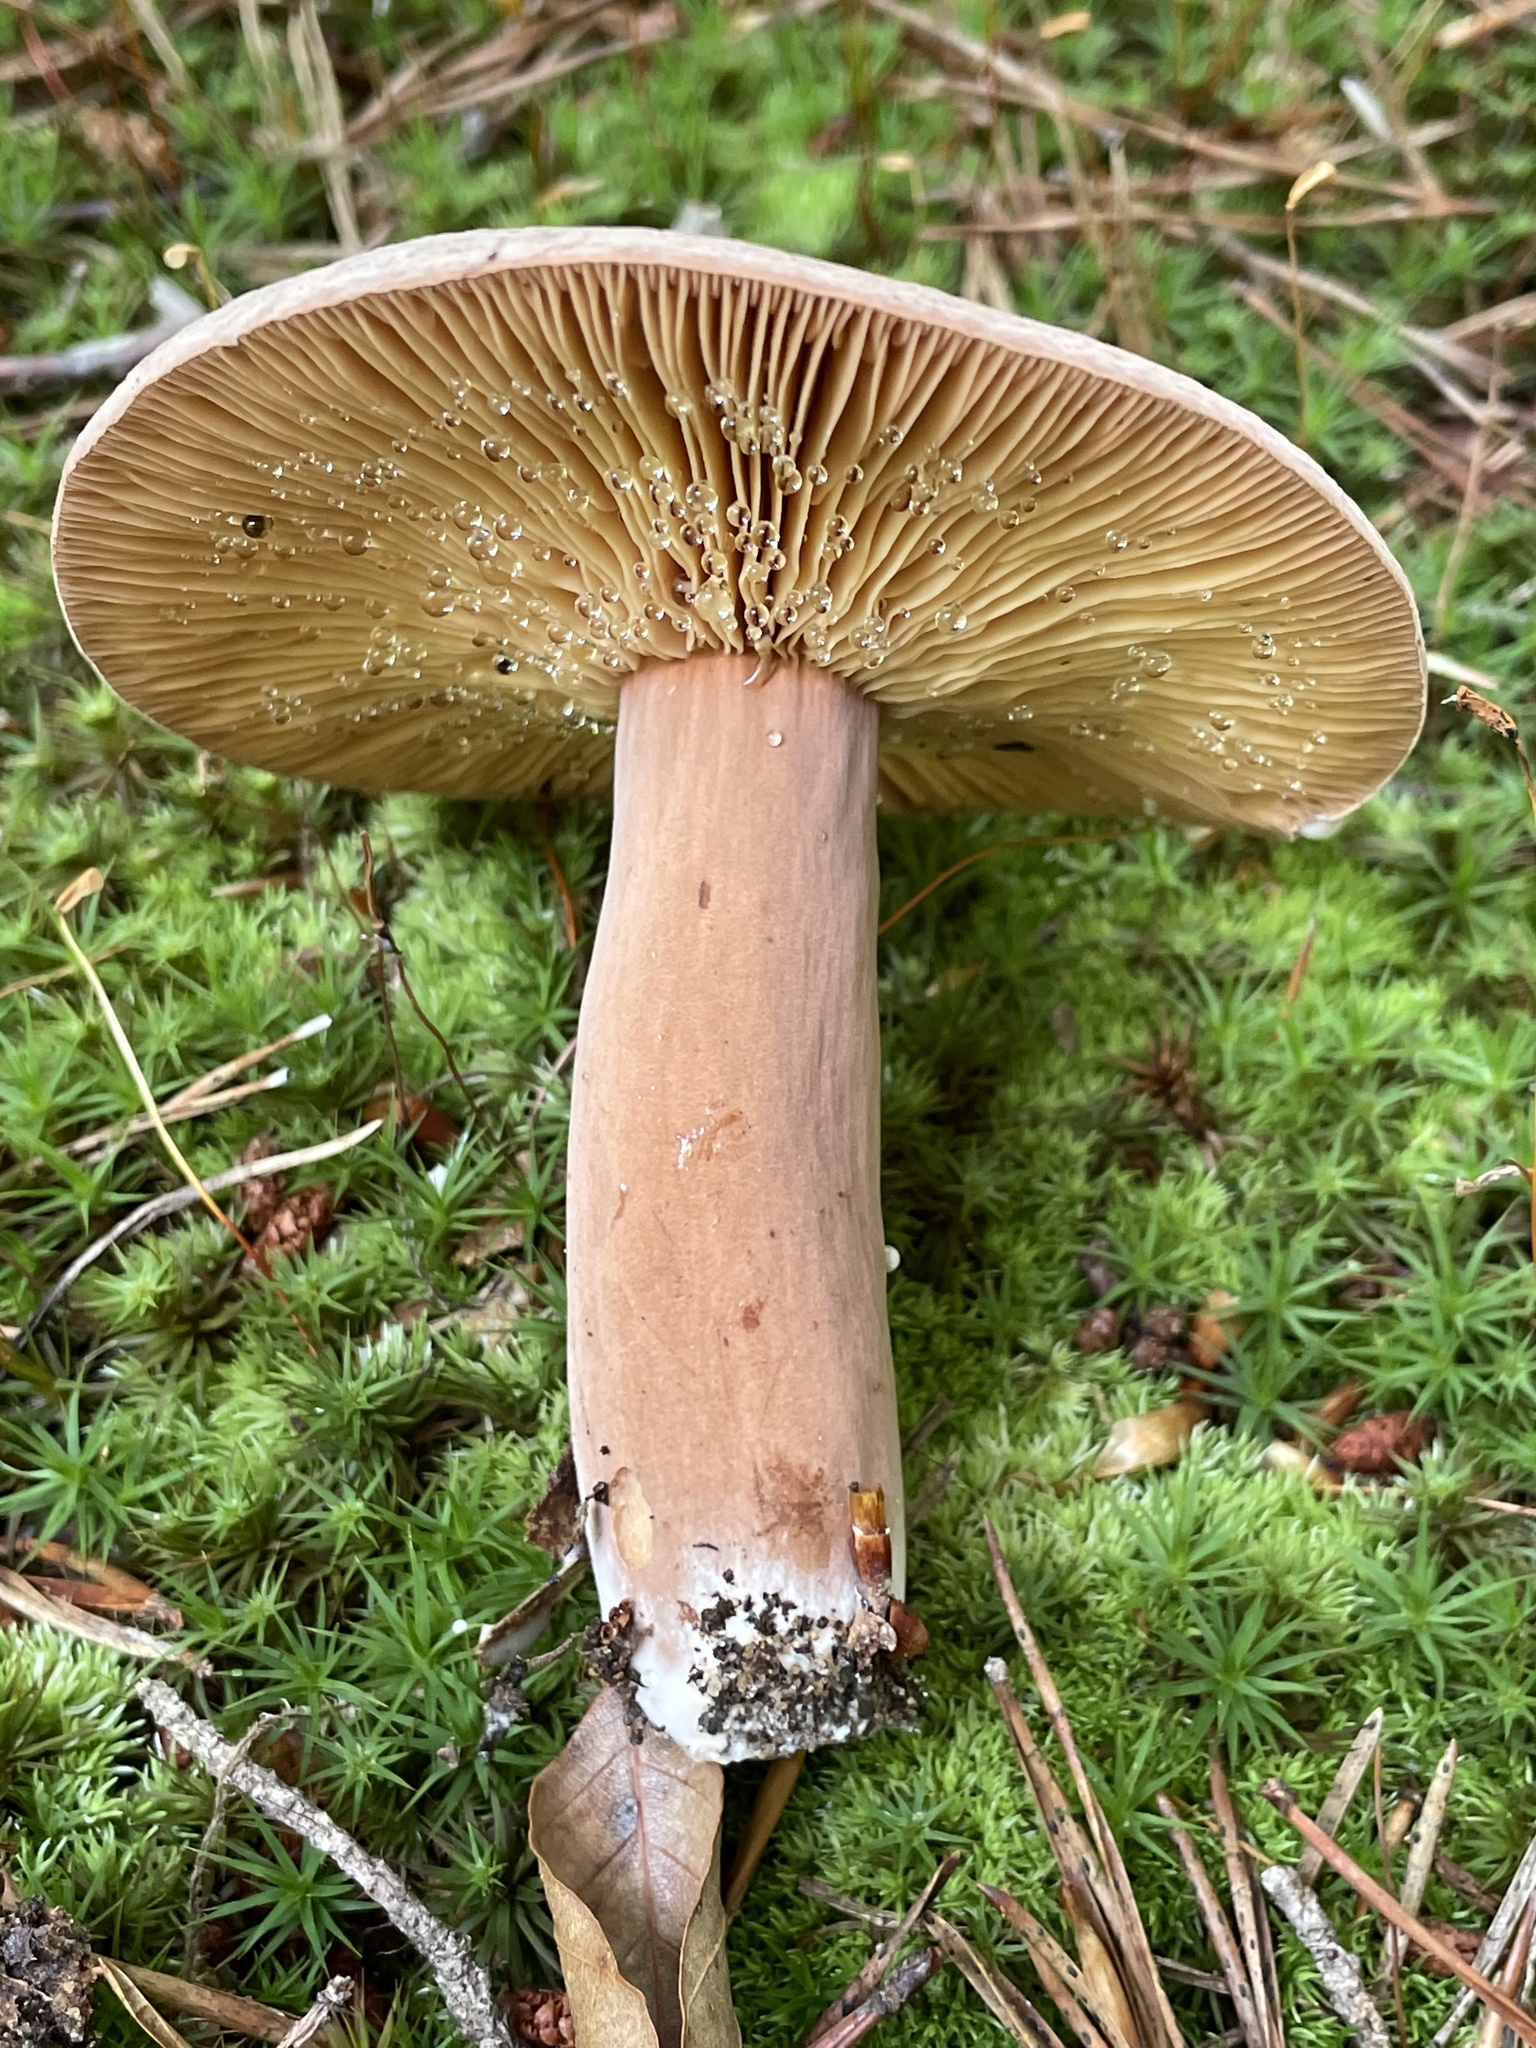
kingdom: Fungi
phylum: Basidiomycota
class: Agaricomycetes
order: Russulales
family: Russulaceae
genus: Lactarius
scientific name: Lactarius corrugis
